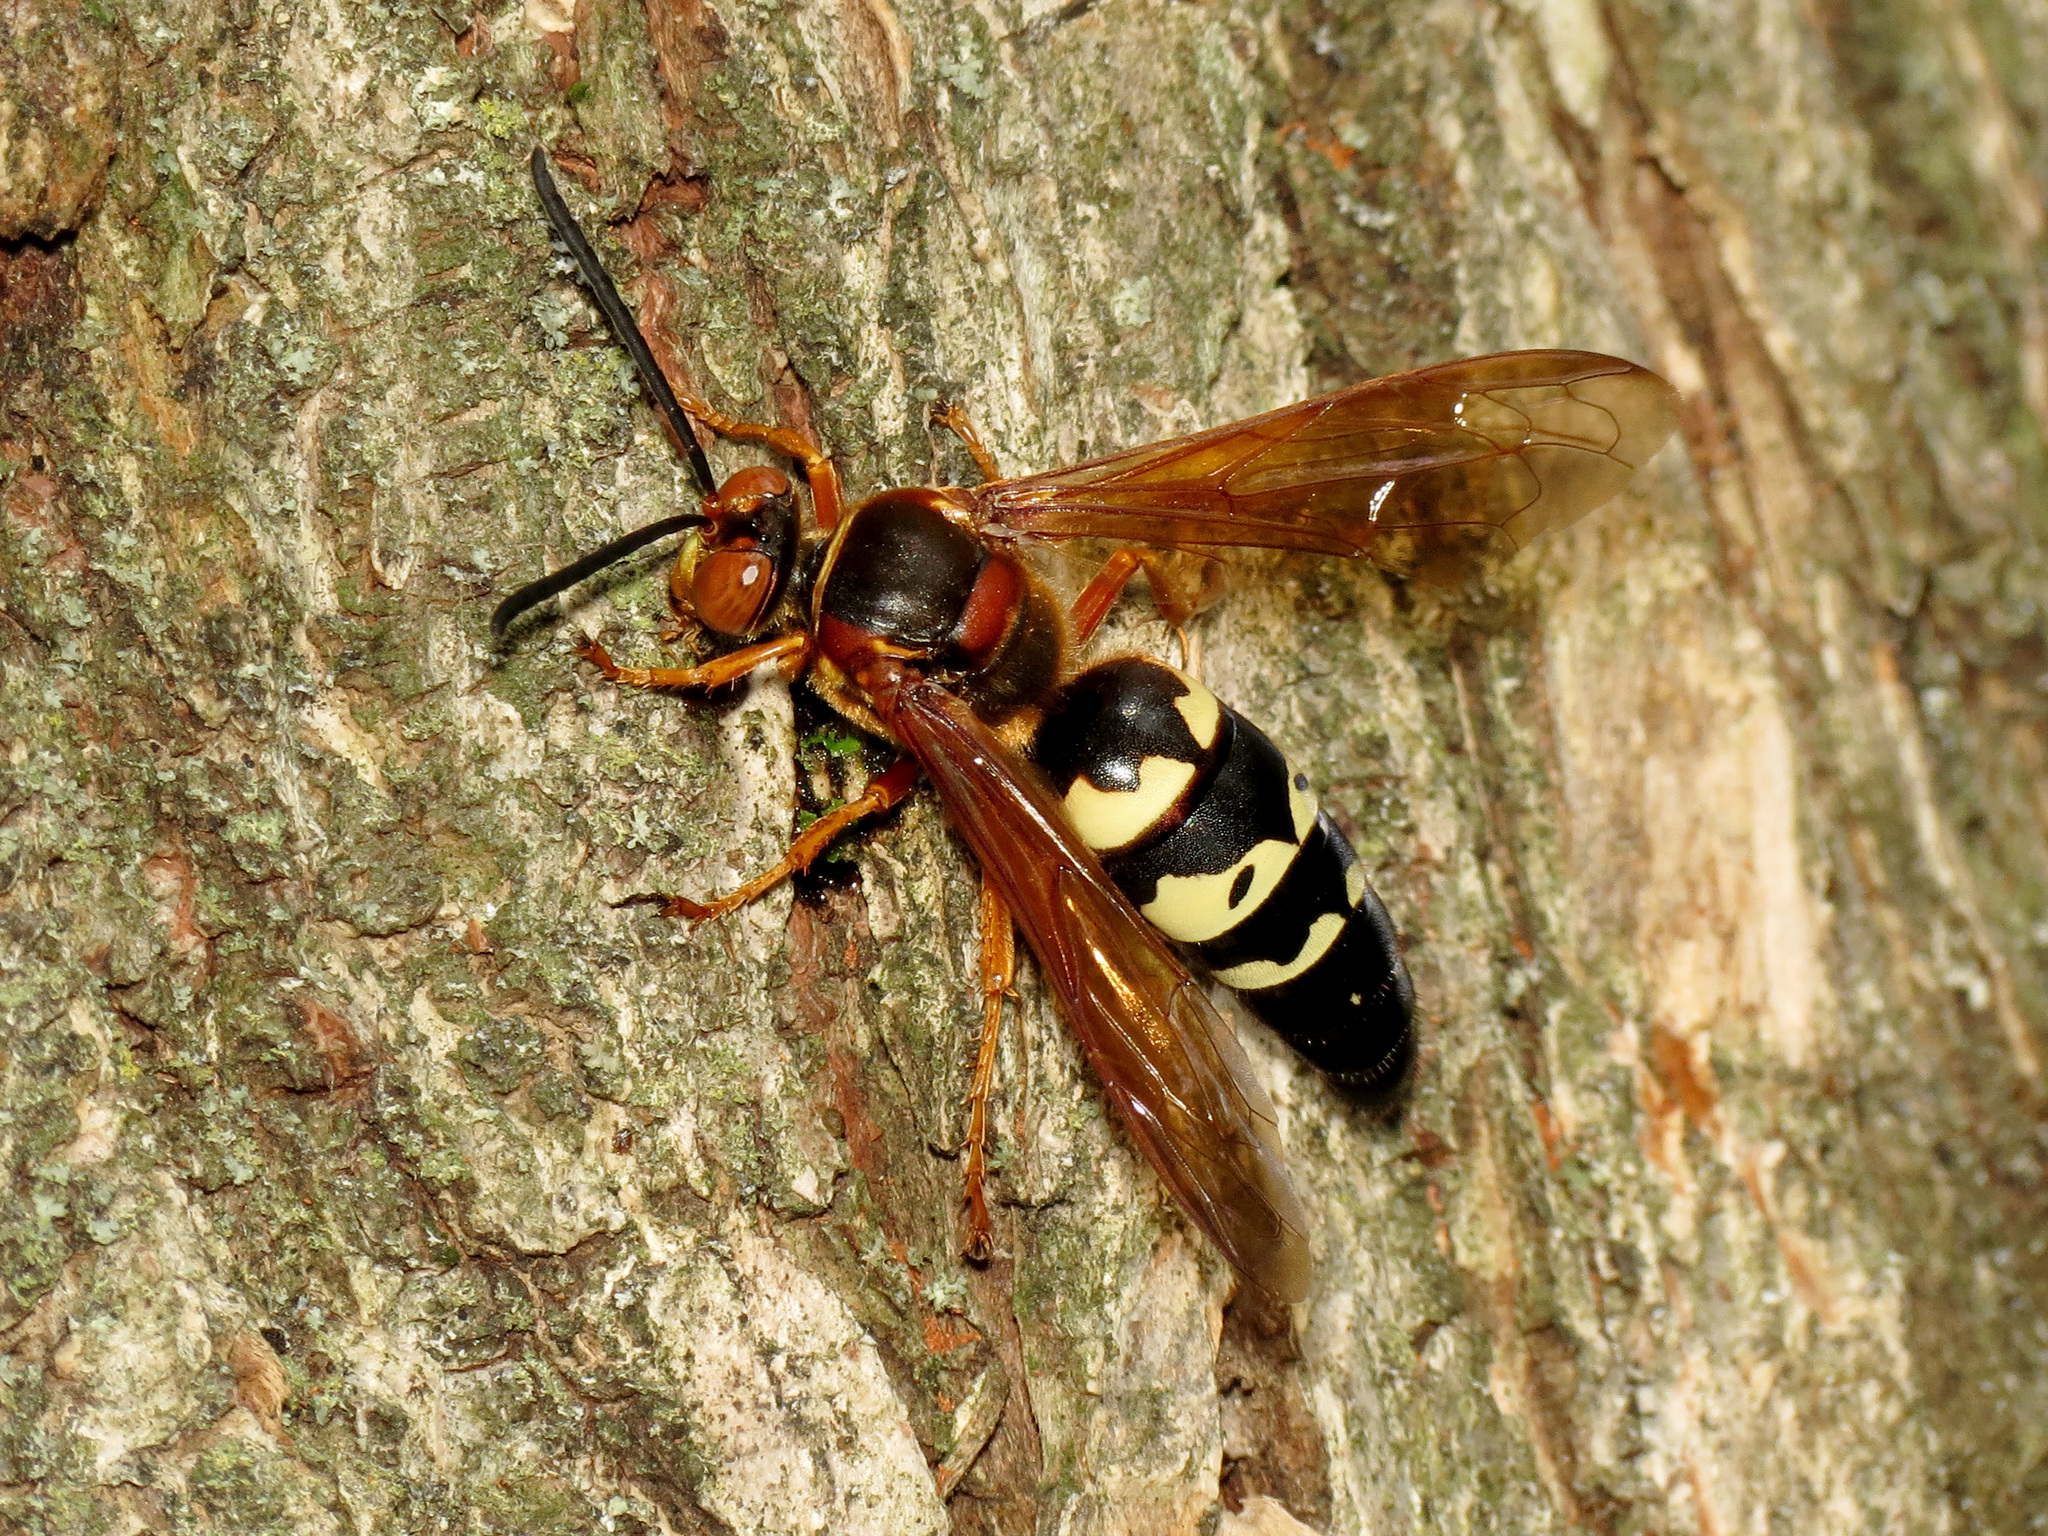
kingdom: Animalia
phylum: Arthropoda
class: Insecta
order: Hymenoptera
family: Crabronidae
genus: Sphecius
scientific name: Sphecius speciosus
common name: Cicada killer
